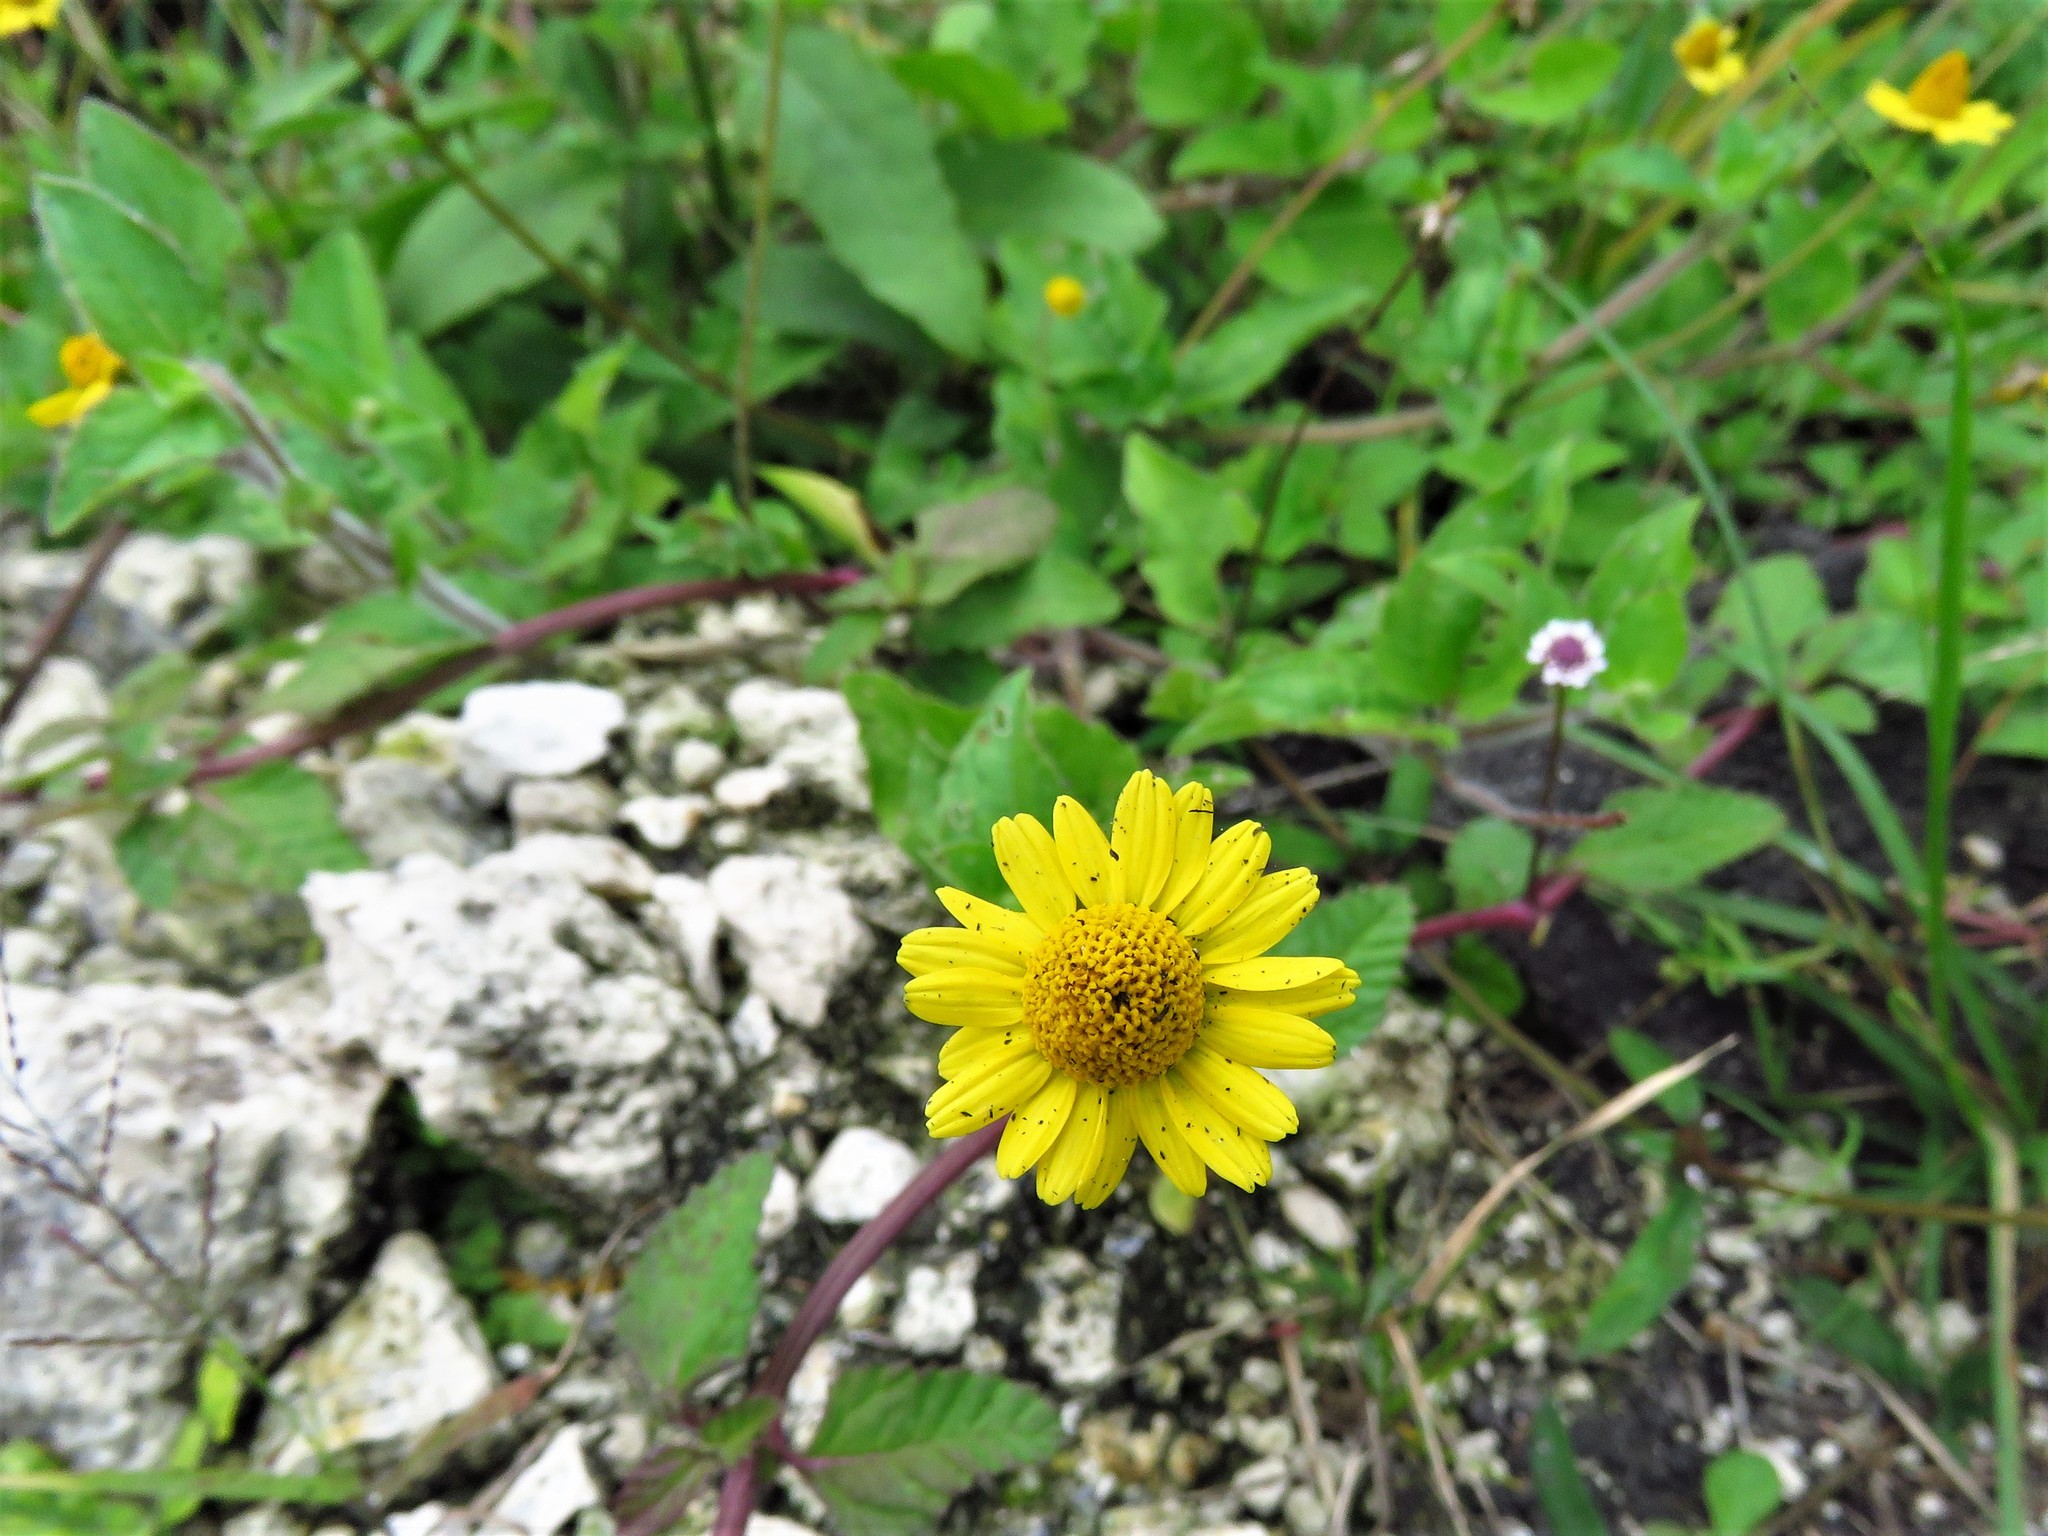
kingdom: Plantae
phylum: Tracheophyta
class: Magnoliopsida
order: Asterales
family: Asteraceae
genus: Acmella
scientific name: Acmella repens
